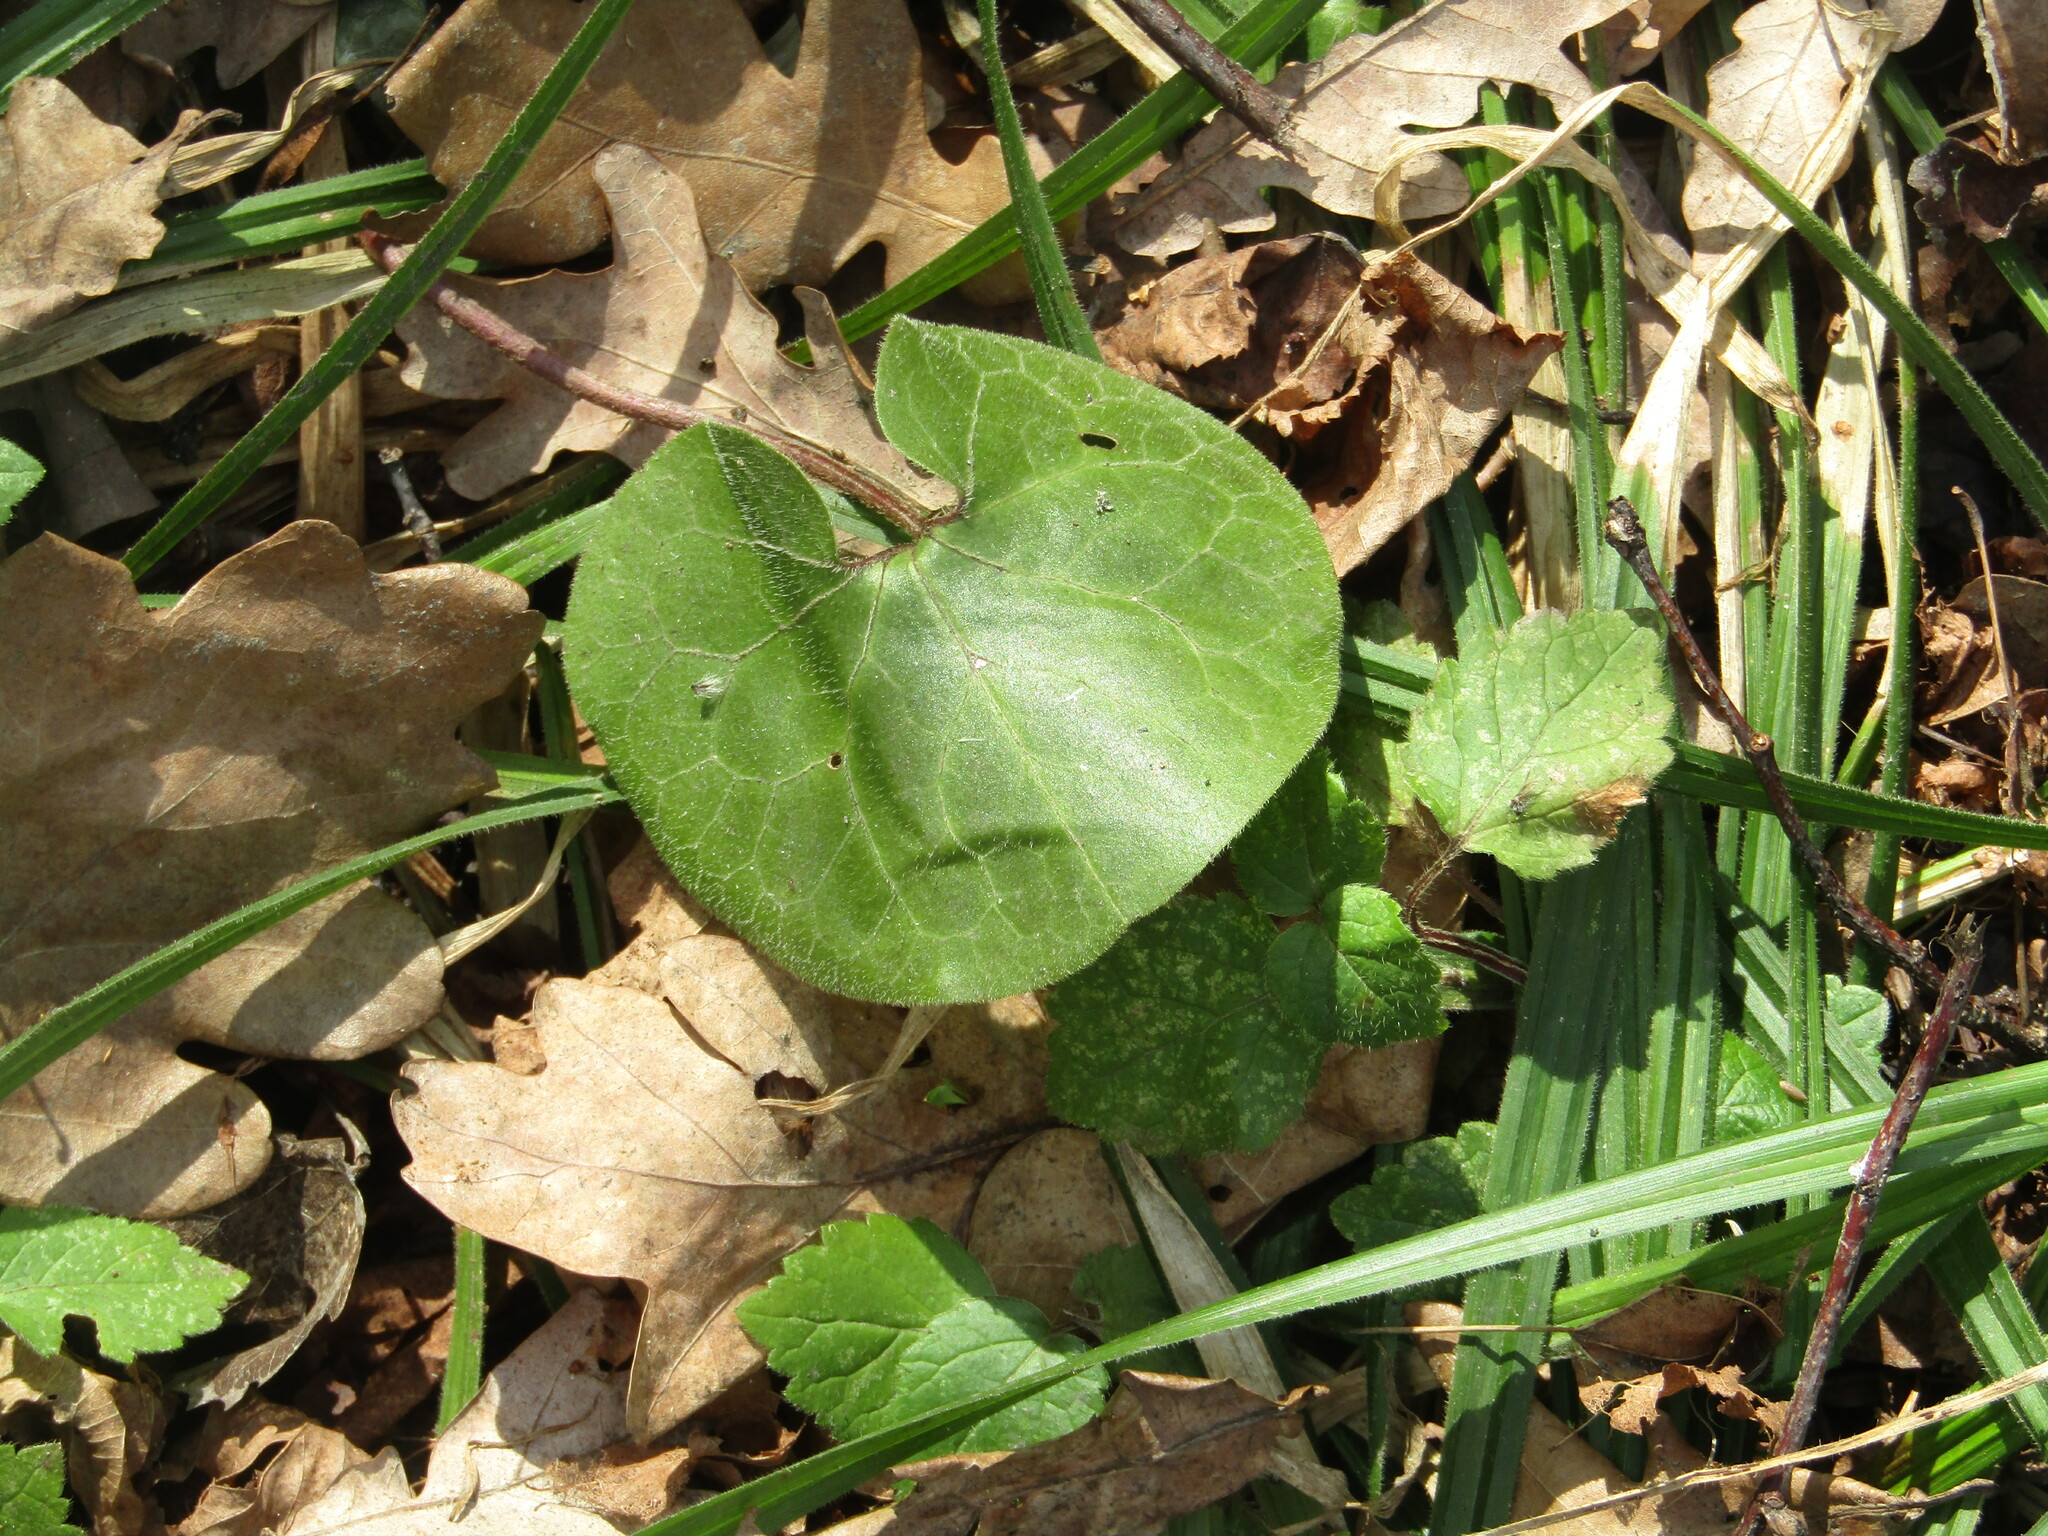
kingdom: Plantae
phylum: Tracheophyta
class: Magnoliopsida
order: Piperales
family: Aristolochiaceae
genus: Asarum
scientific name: Asarum europaeum
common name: Asarabacca
